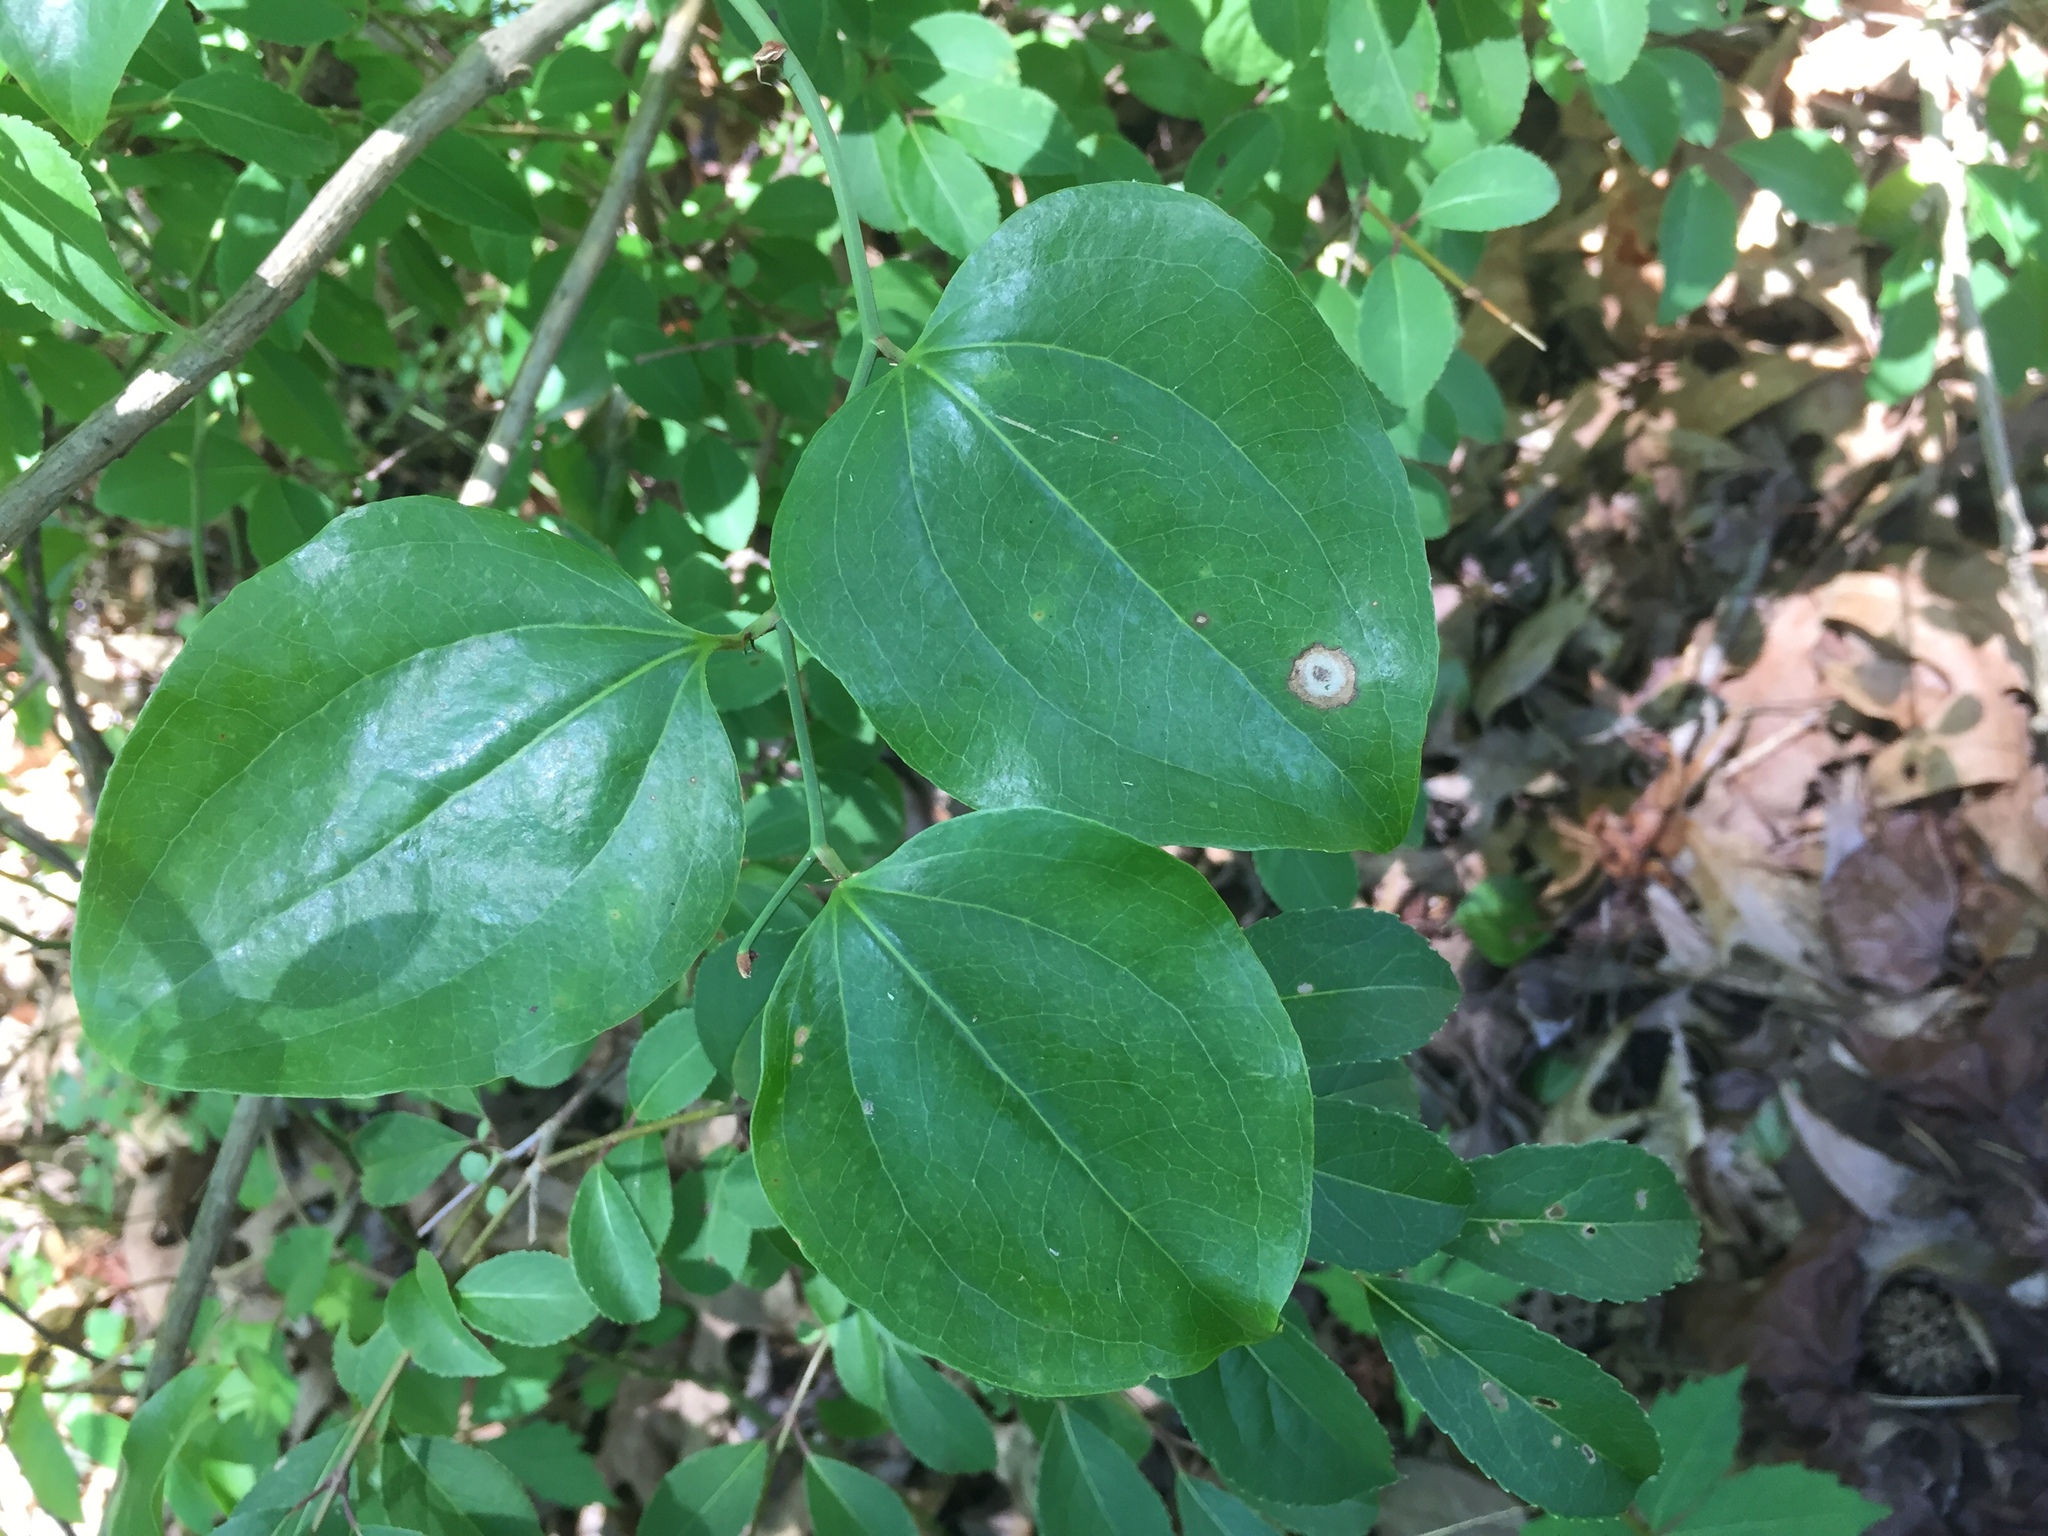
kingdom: Plantae
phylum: Tracheophyta
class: Liliopsida
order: Liliales
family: Smilacaceae
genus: Smilax
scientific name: Smilax rotundifolia
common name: Bullbriar
